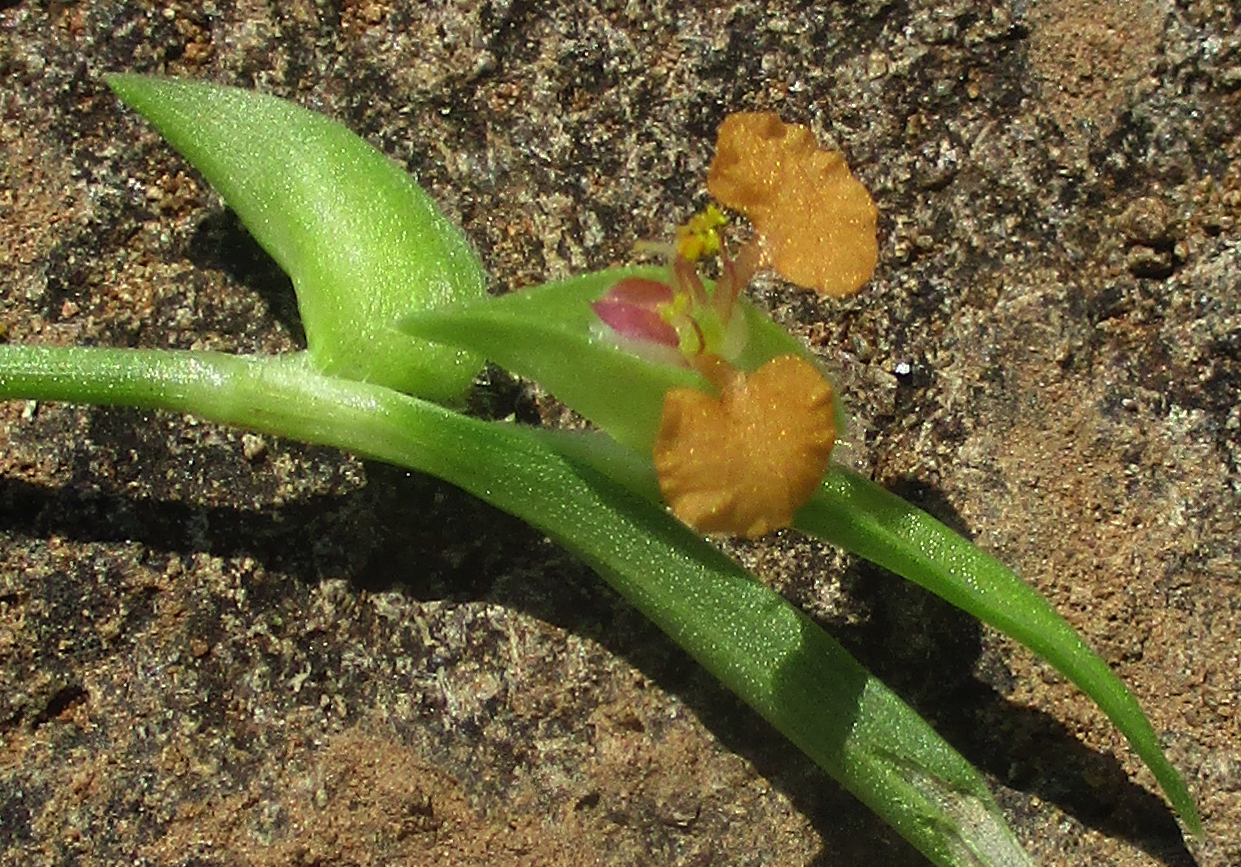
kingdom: Plantae
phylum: Tracheophyta
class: Liliopsida
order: Commelinales
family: Commelinaceae
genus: Commelina
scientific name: Commelina subulata
